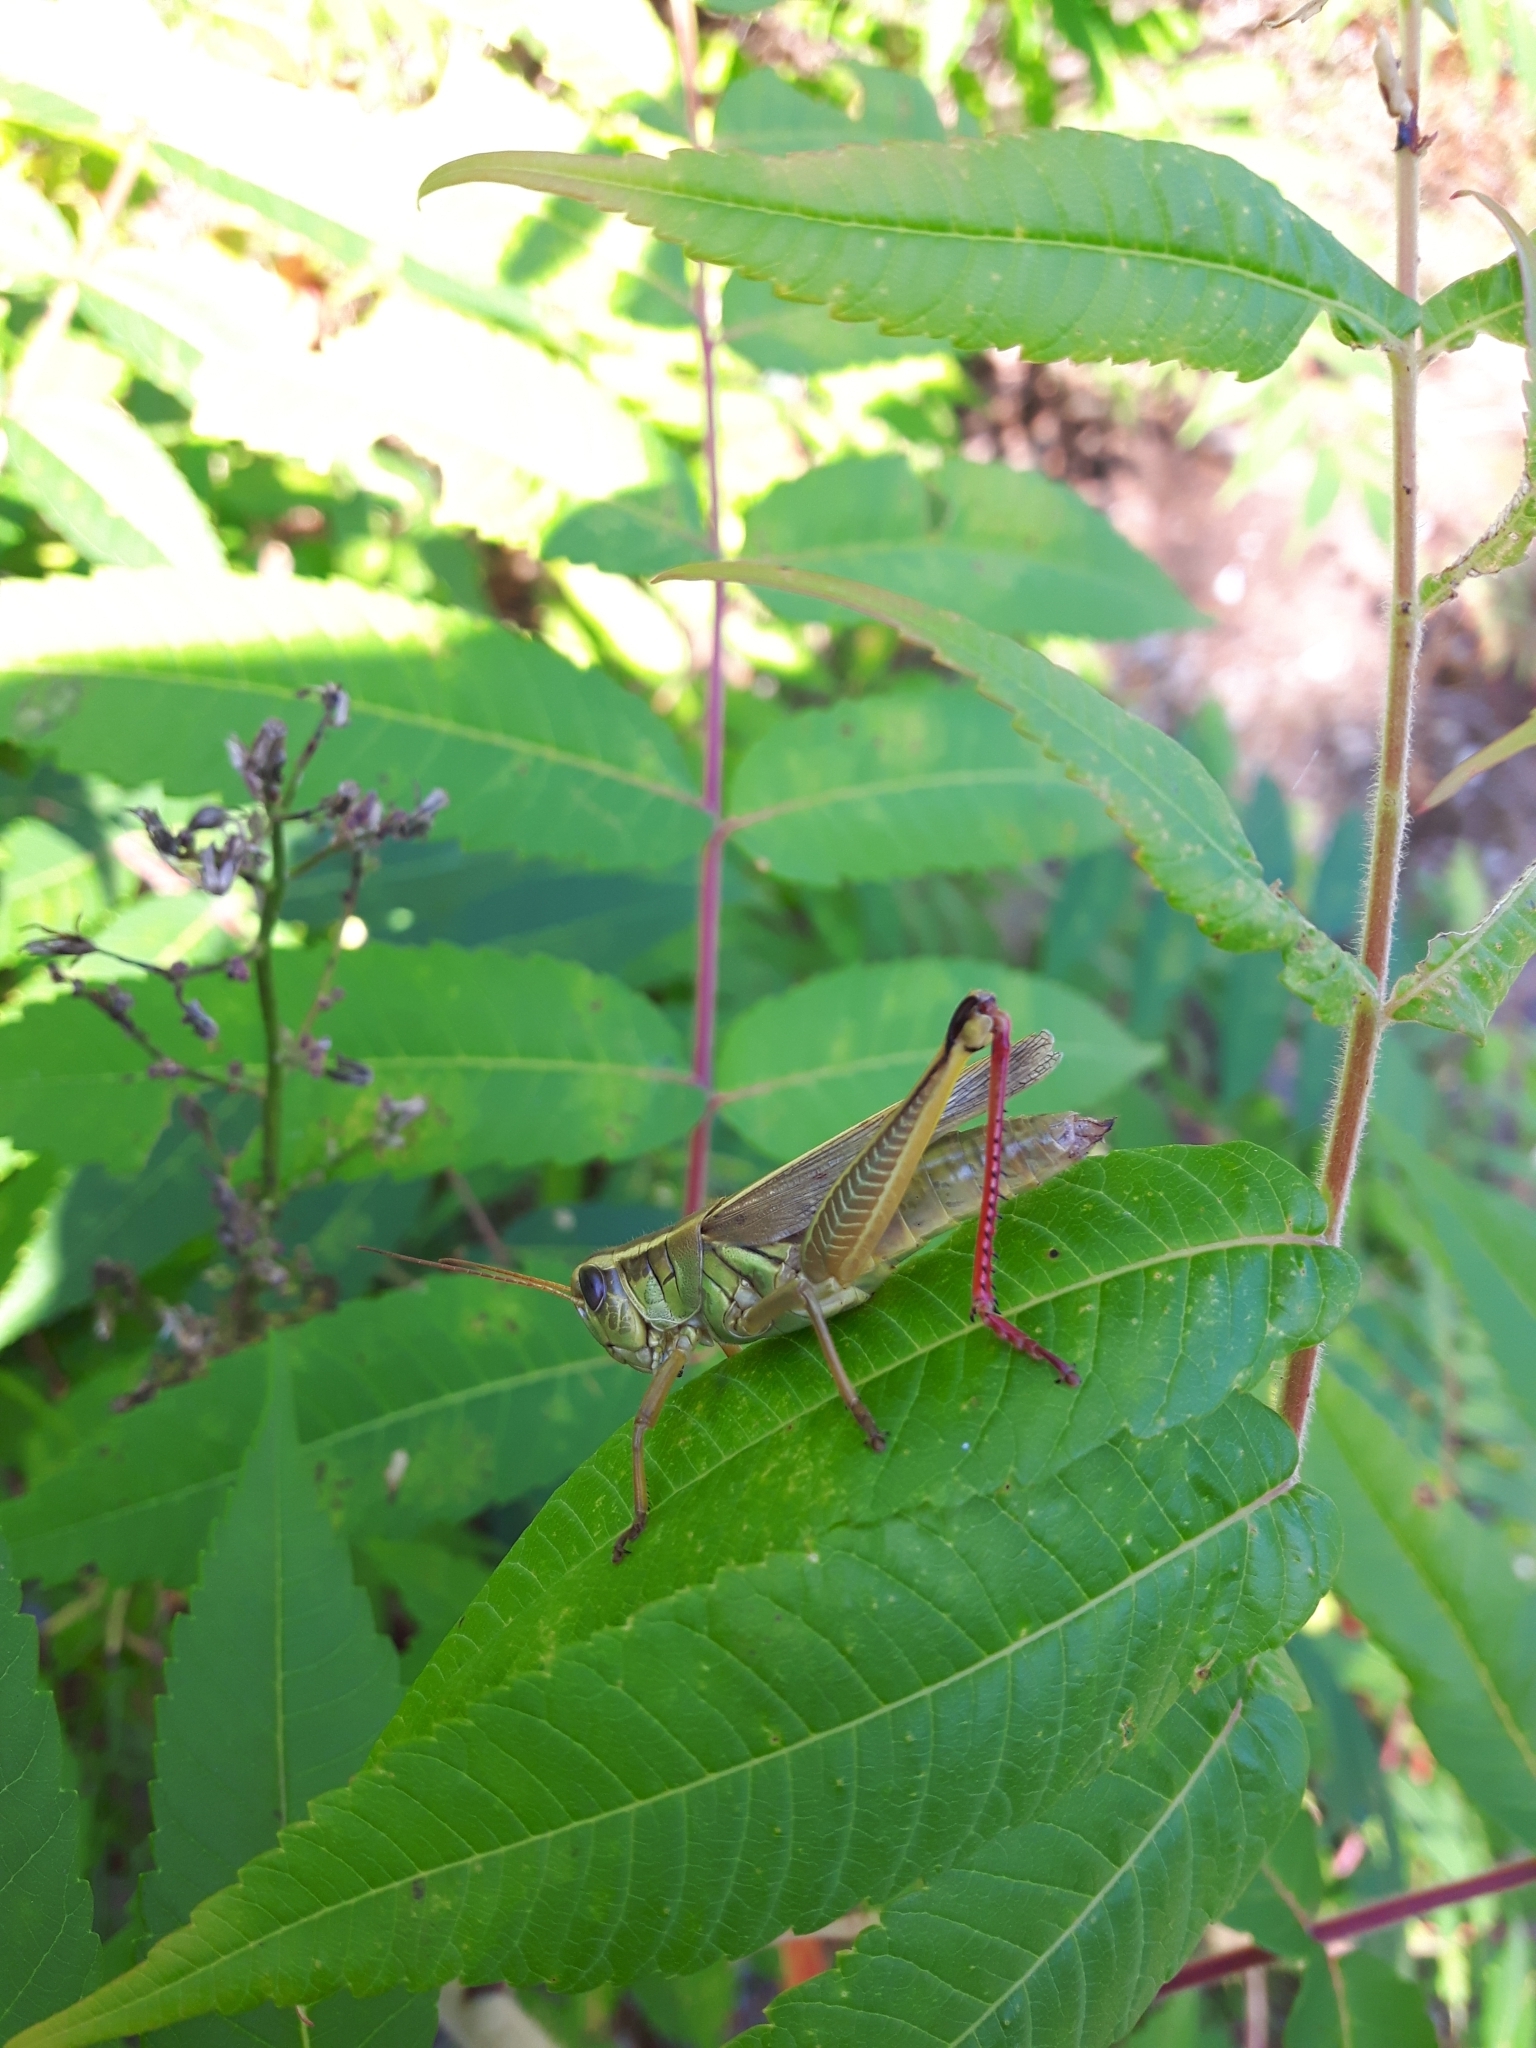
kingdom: Animalia
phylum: Arthropoda
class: Insecta
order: Orthoptera
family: Acrididae
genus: Melanoplus
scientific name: Melanoplus bivittatus
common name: Two-striped grasshopper
